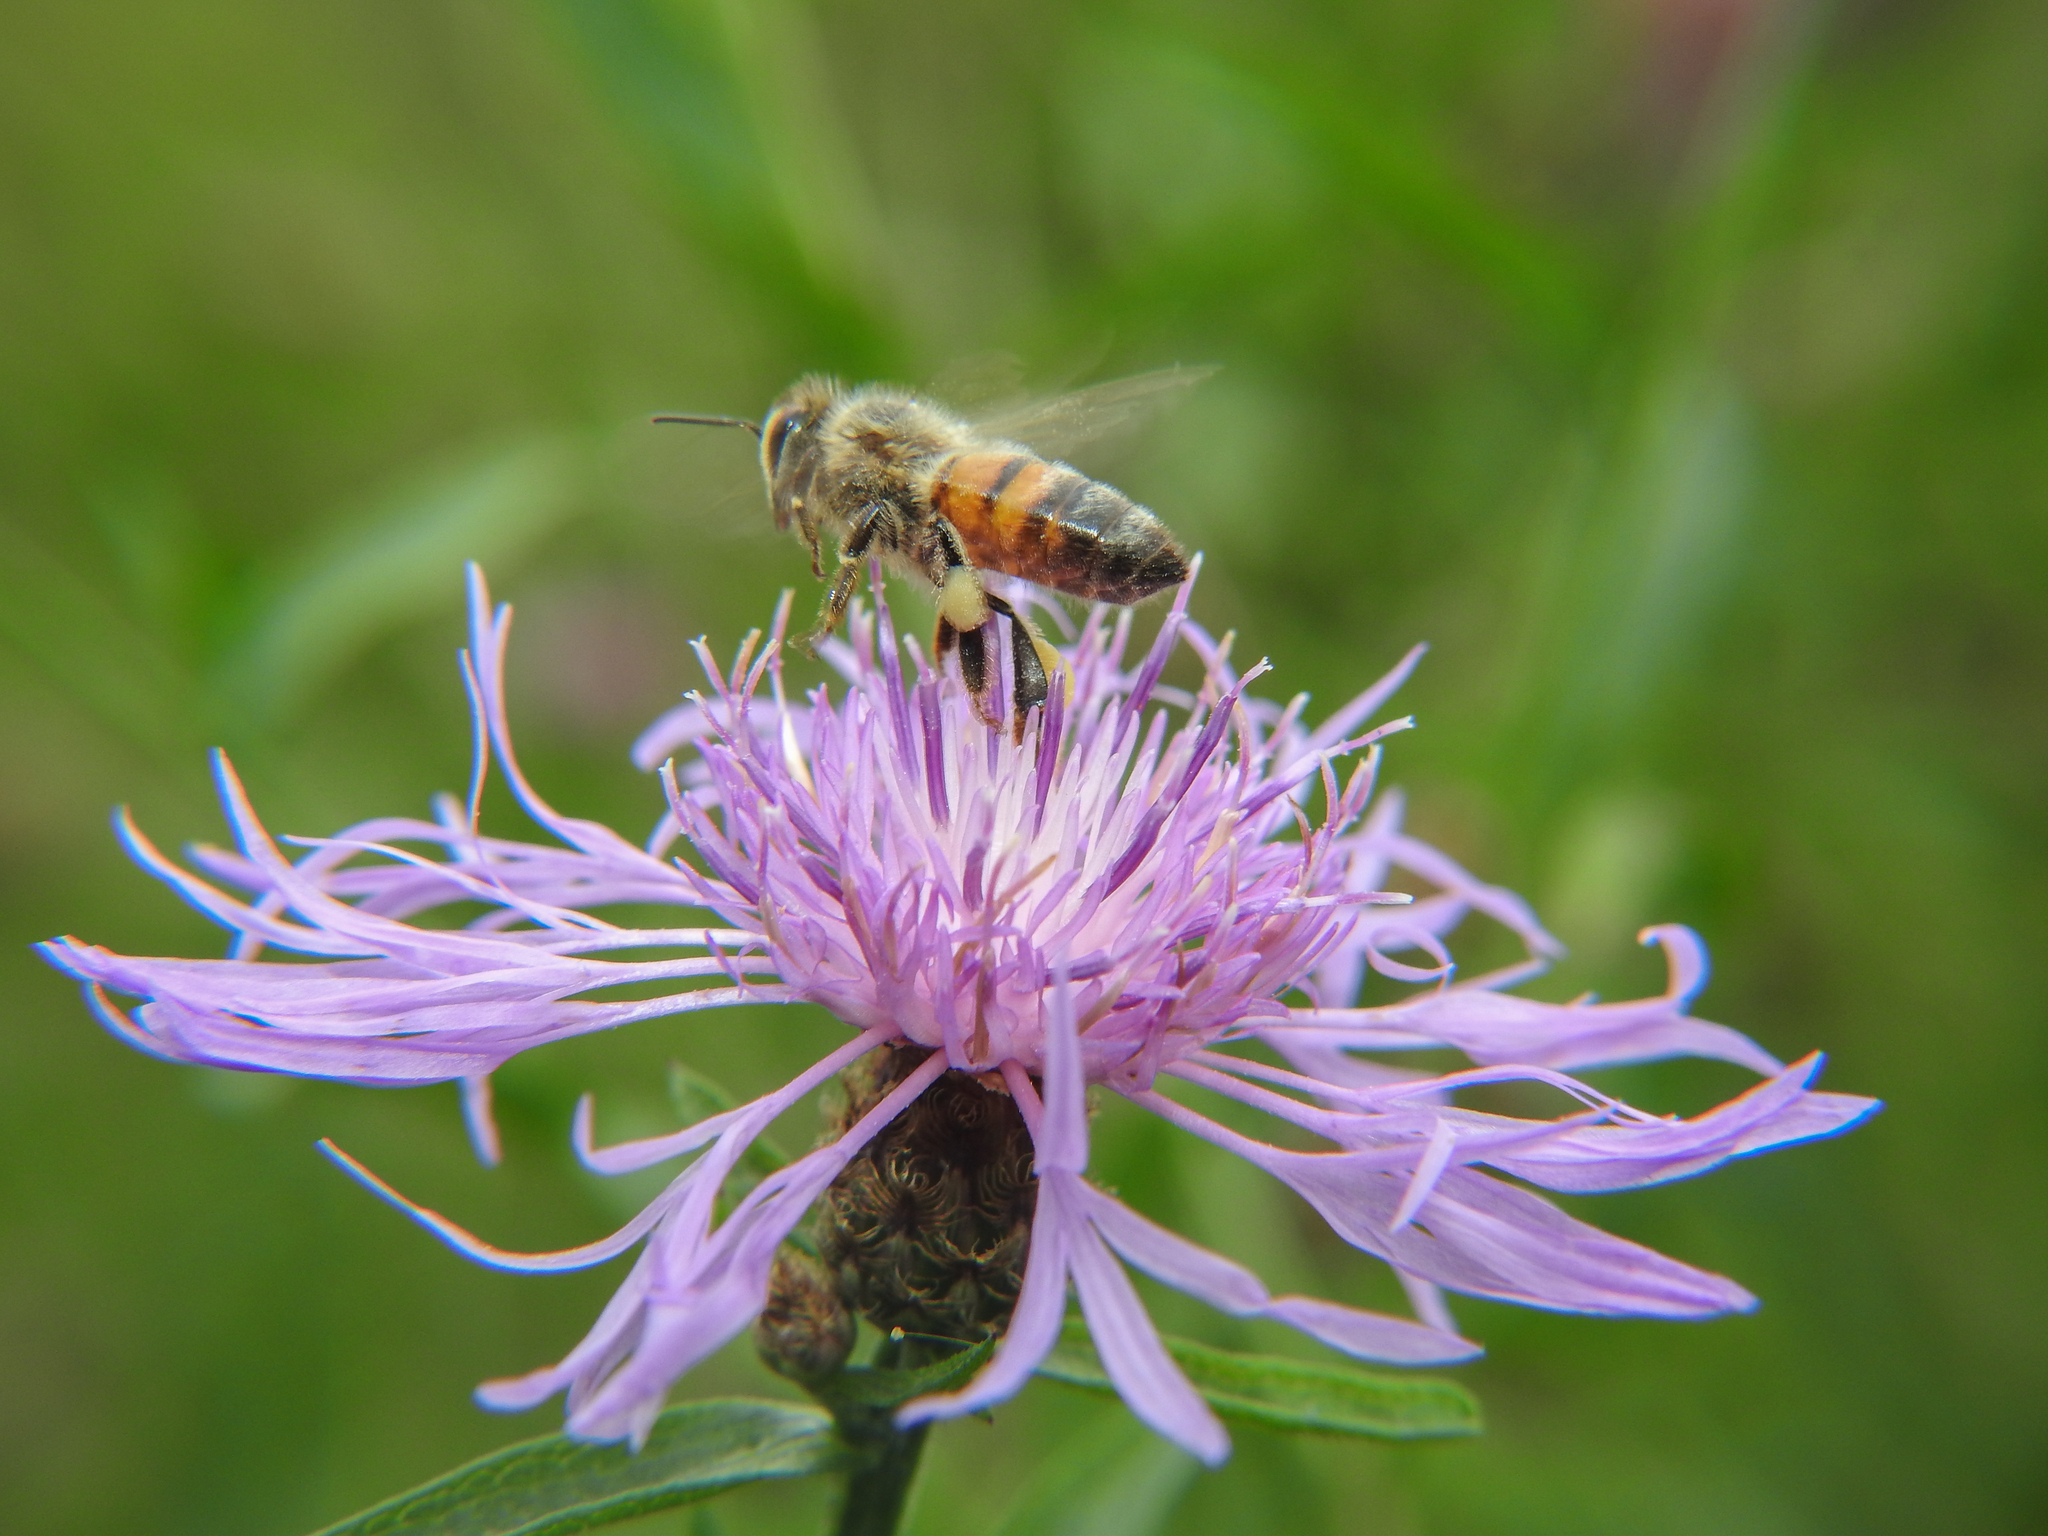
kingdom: Animalia
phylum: Arthropoda
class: Insecta
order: Hymenoptera
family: Apidae
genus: Apis
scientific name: Apis mellifera
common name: Honey bee
